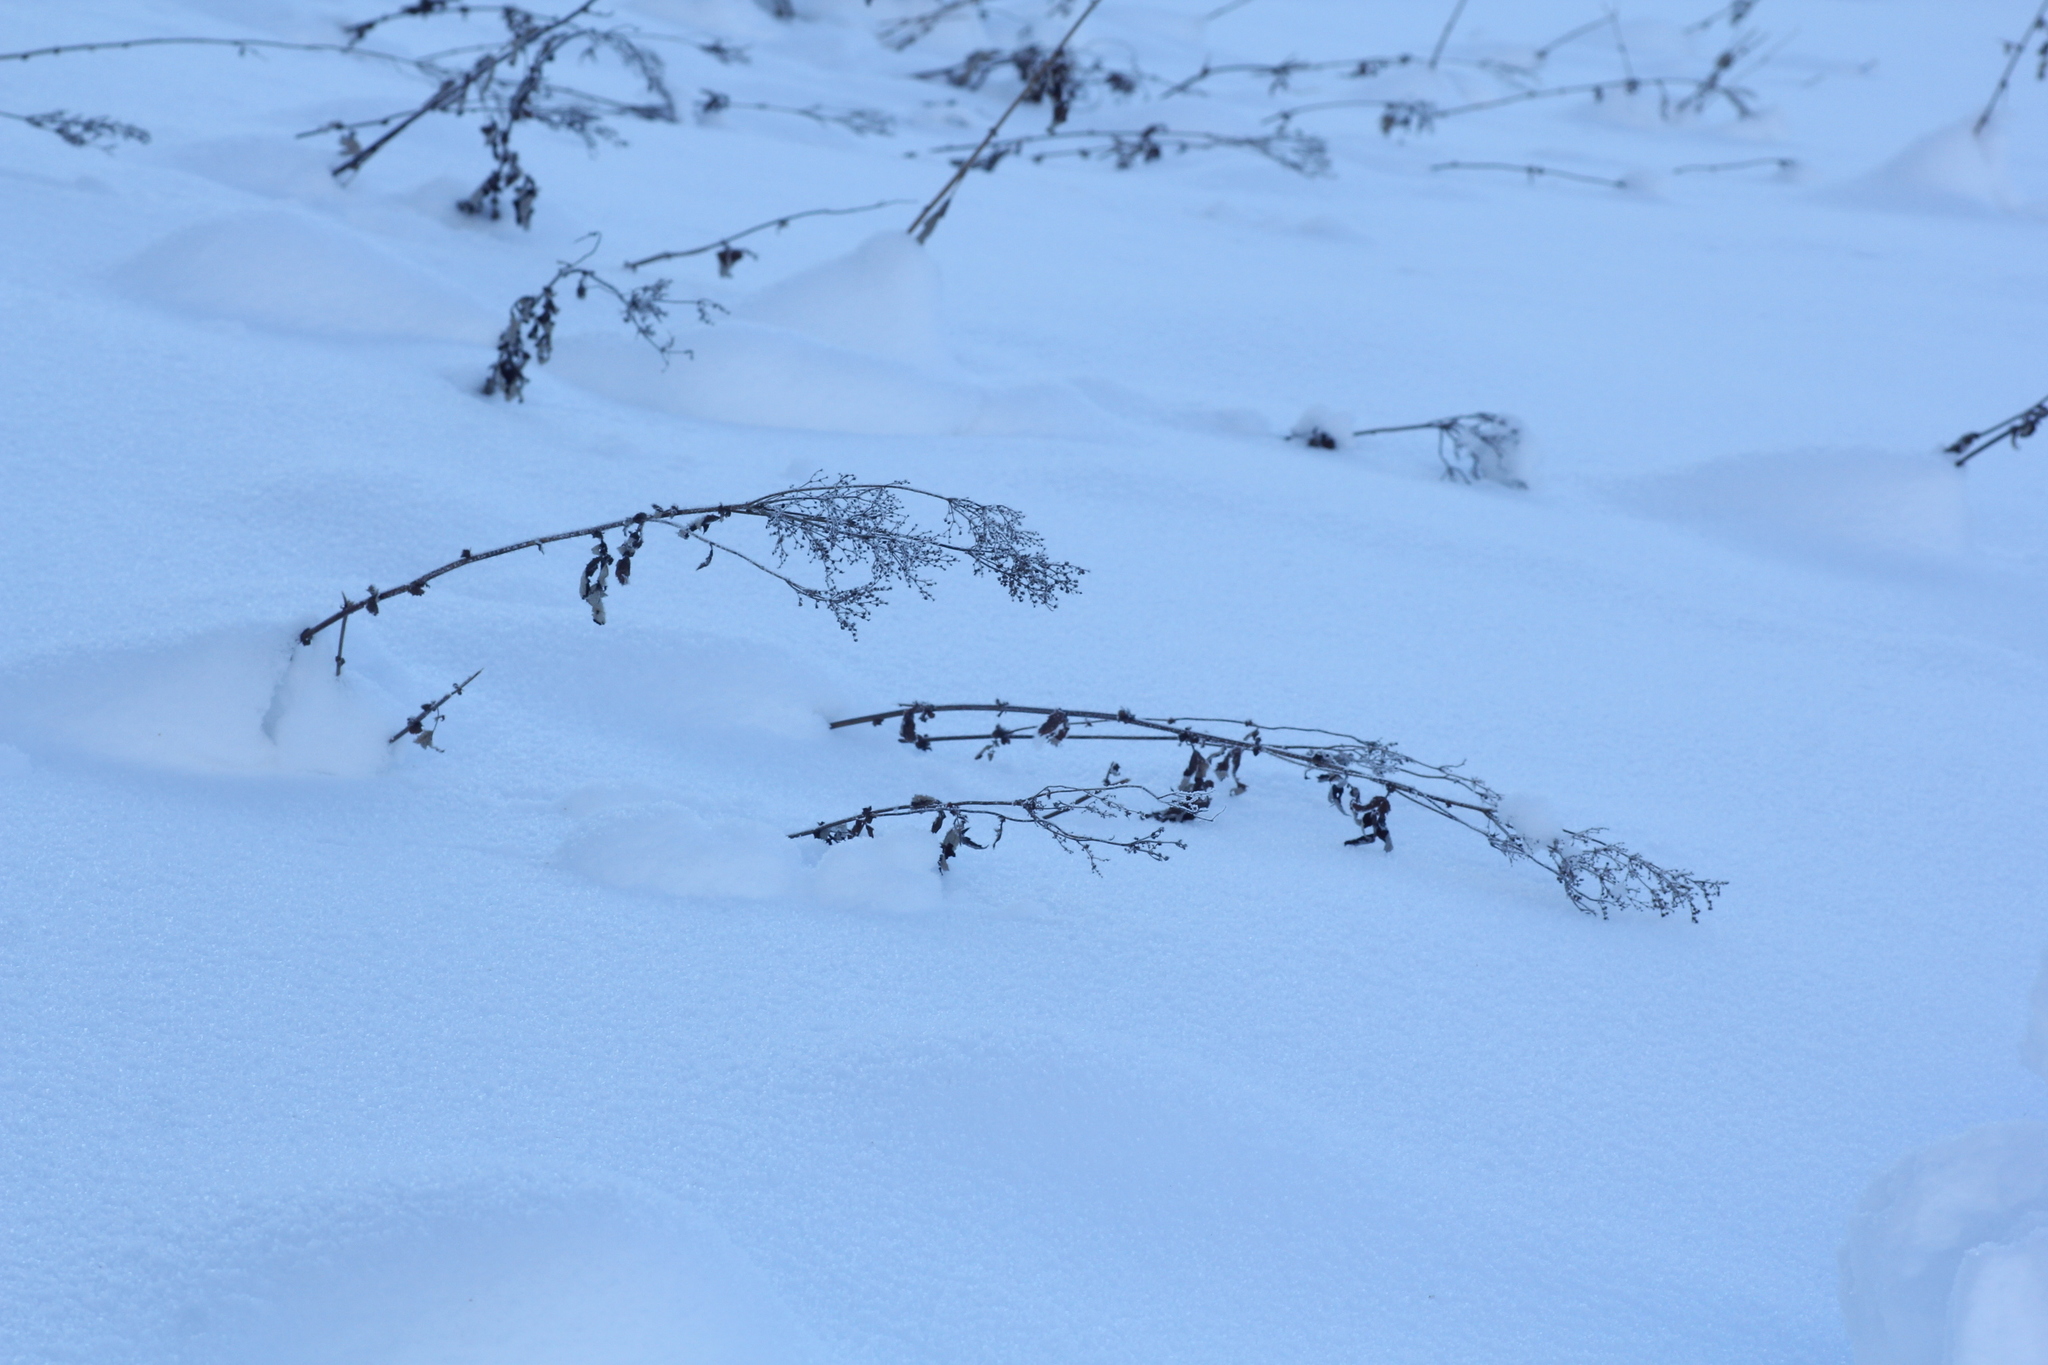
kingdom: Plantae
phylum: Tracheophyta
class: Magnoliopsida
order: Rosales
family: Rosaceae
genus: Filipendula
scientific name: Filipendula ulmaria
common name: Meadowsweet
